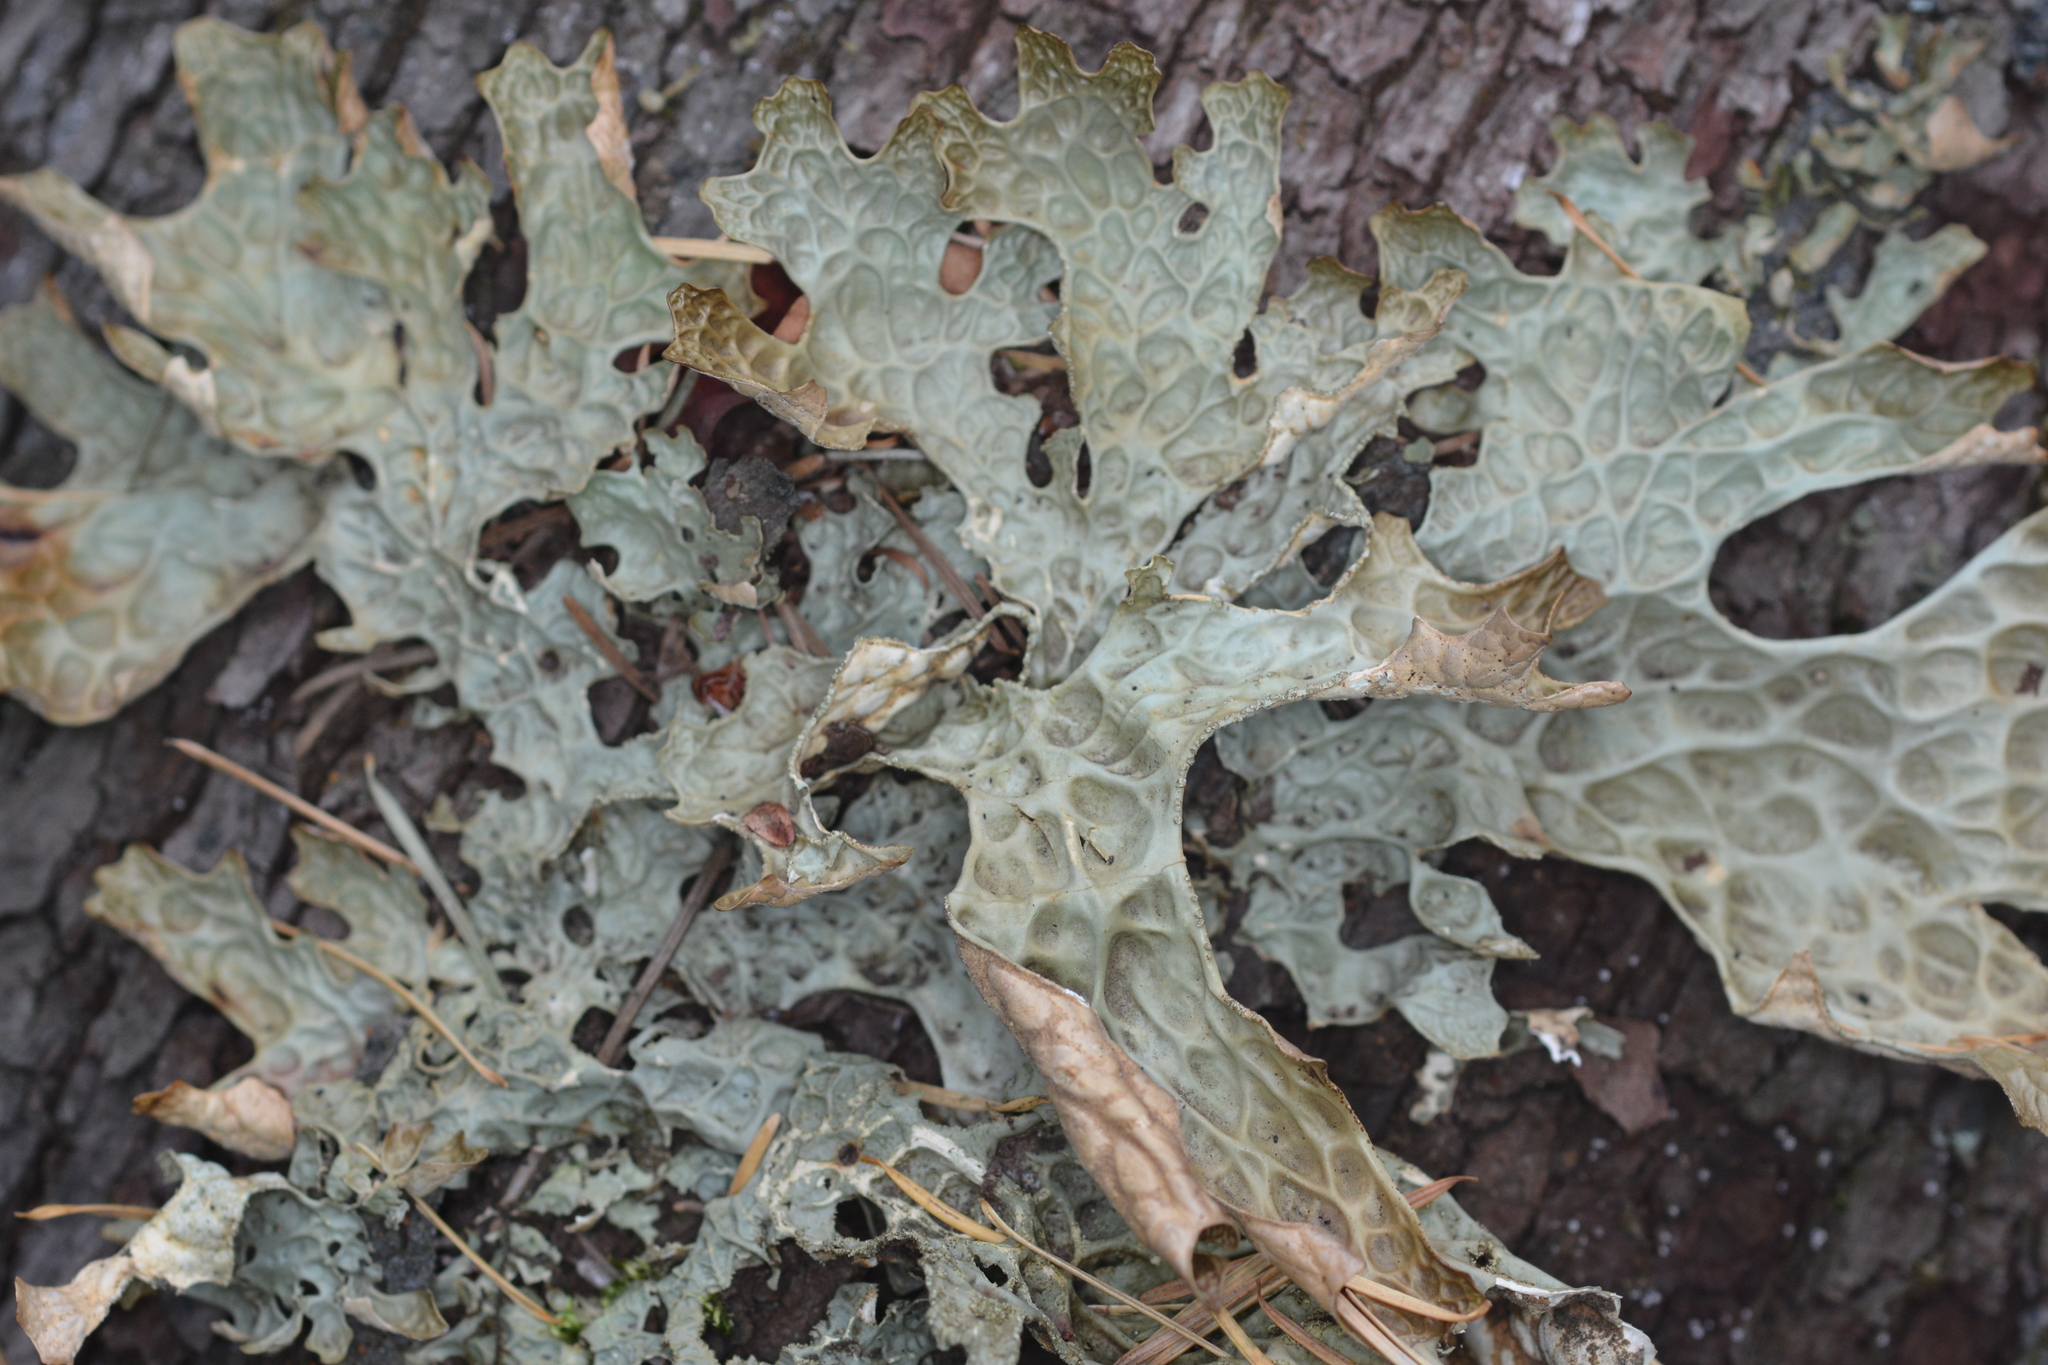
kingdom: Fungi
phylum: Ascomycota
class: Lecanoromycetes
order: Peltigerales
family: Lobariaceae
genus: Lobaria
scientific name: Lobaria pulmonaria
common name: Lungwort
